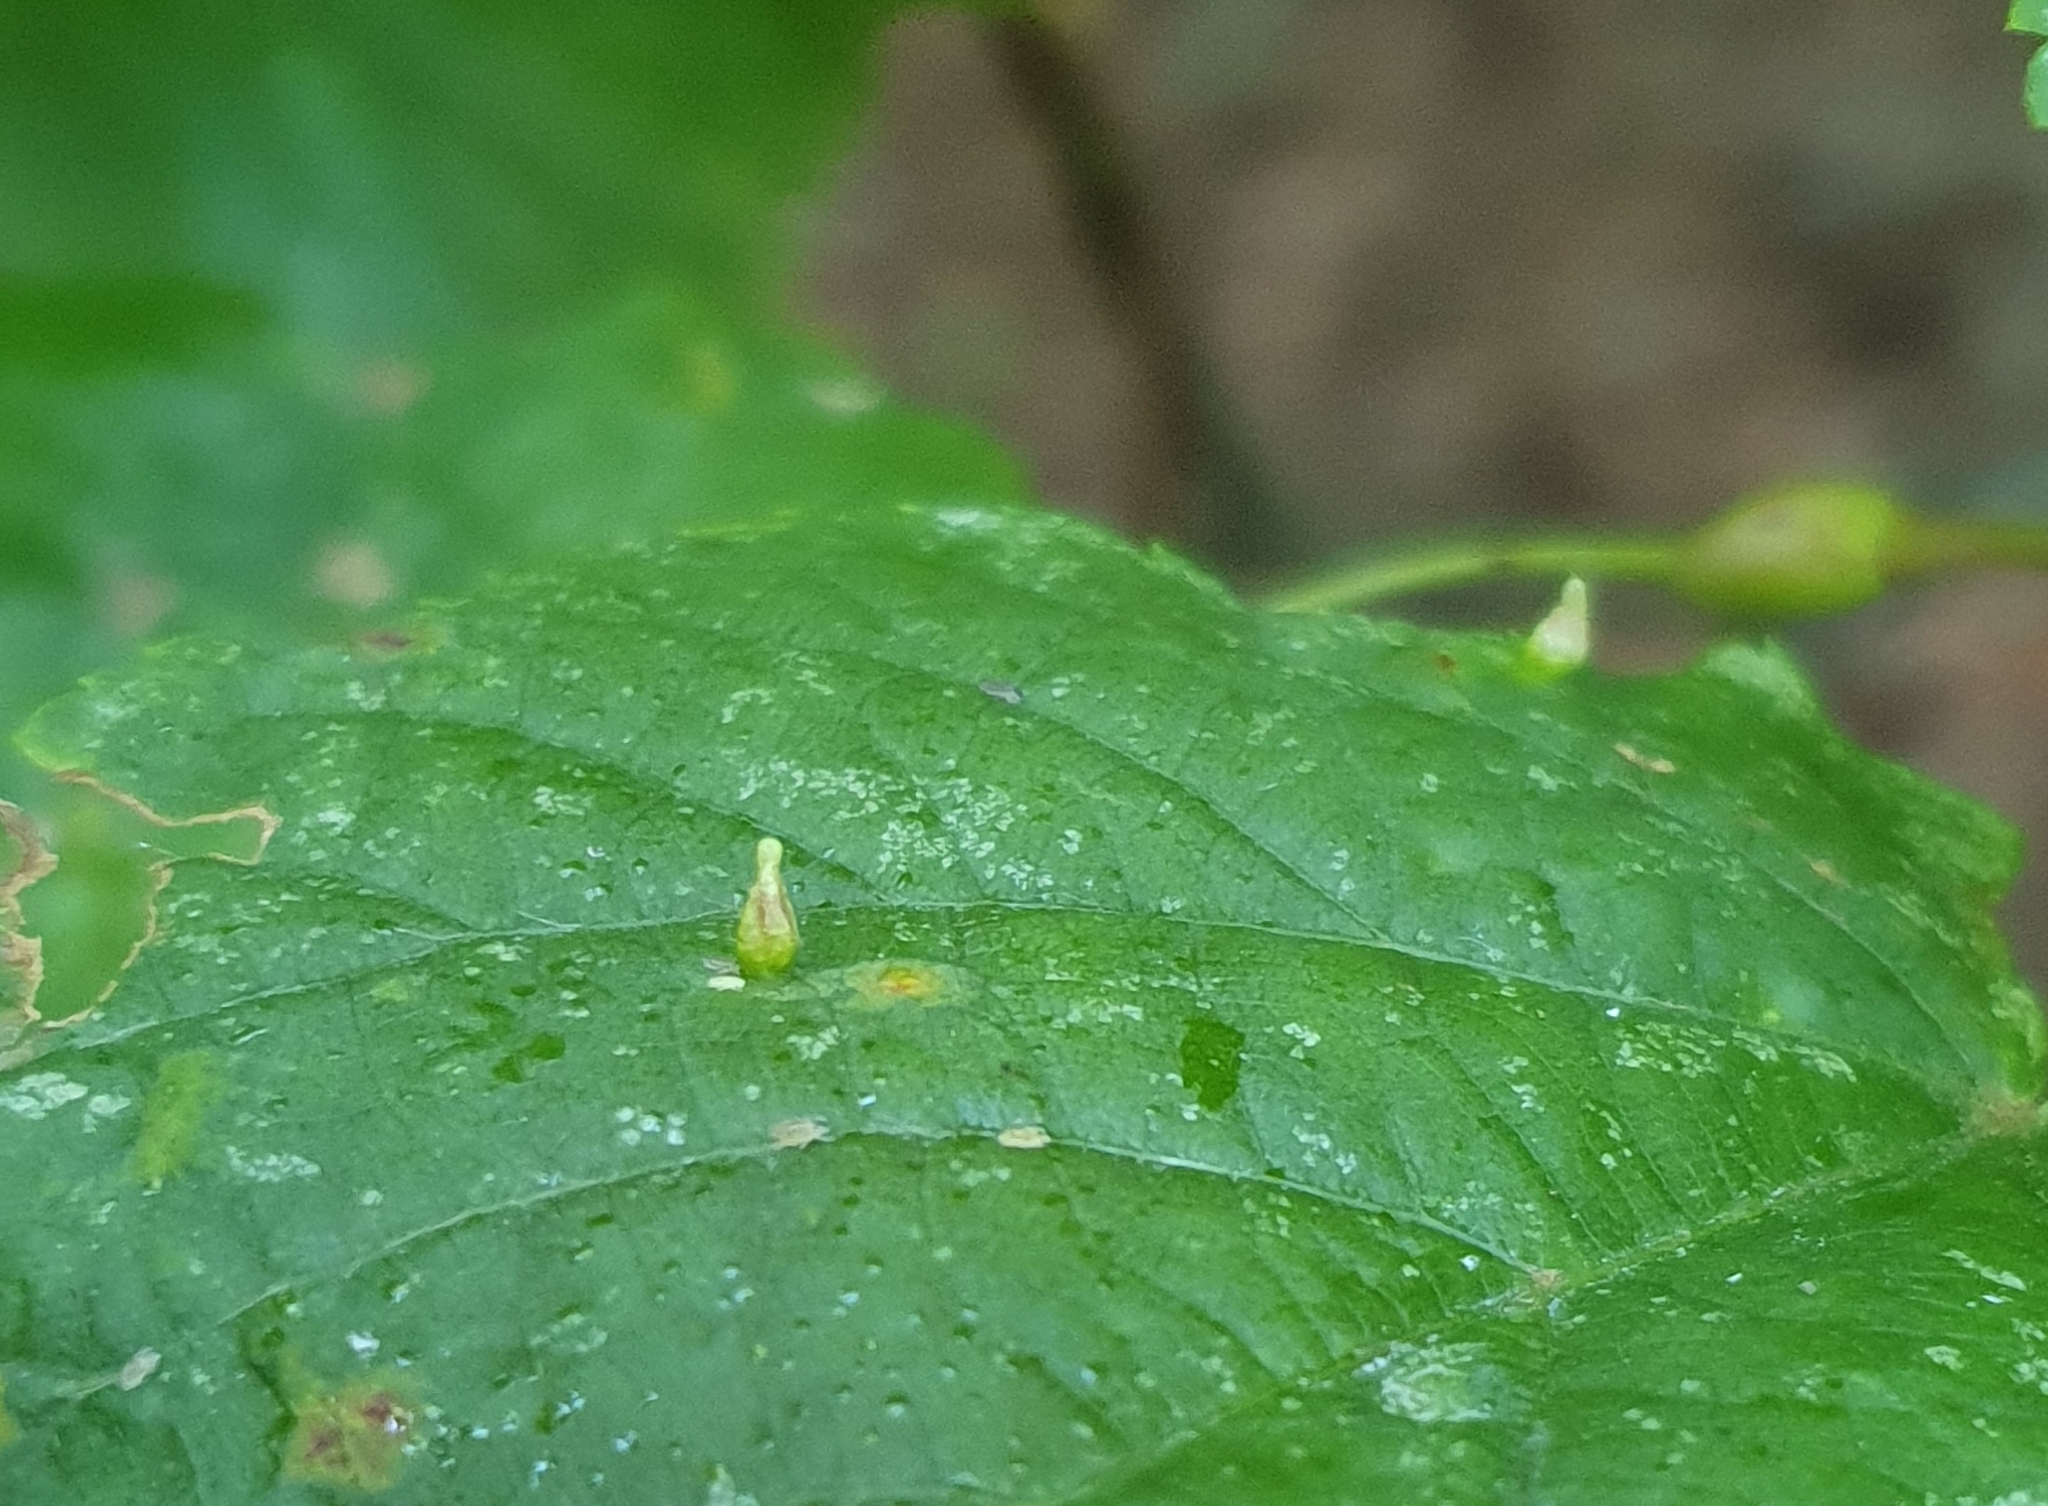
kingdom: Animalia
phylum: Arthropoda
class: Arachnida
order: Trombidiformes
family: Eriophyidae
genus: Eriophyes
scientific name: Eriophyes tiliae
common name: Red nail gall mite
